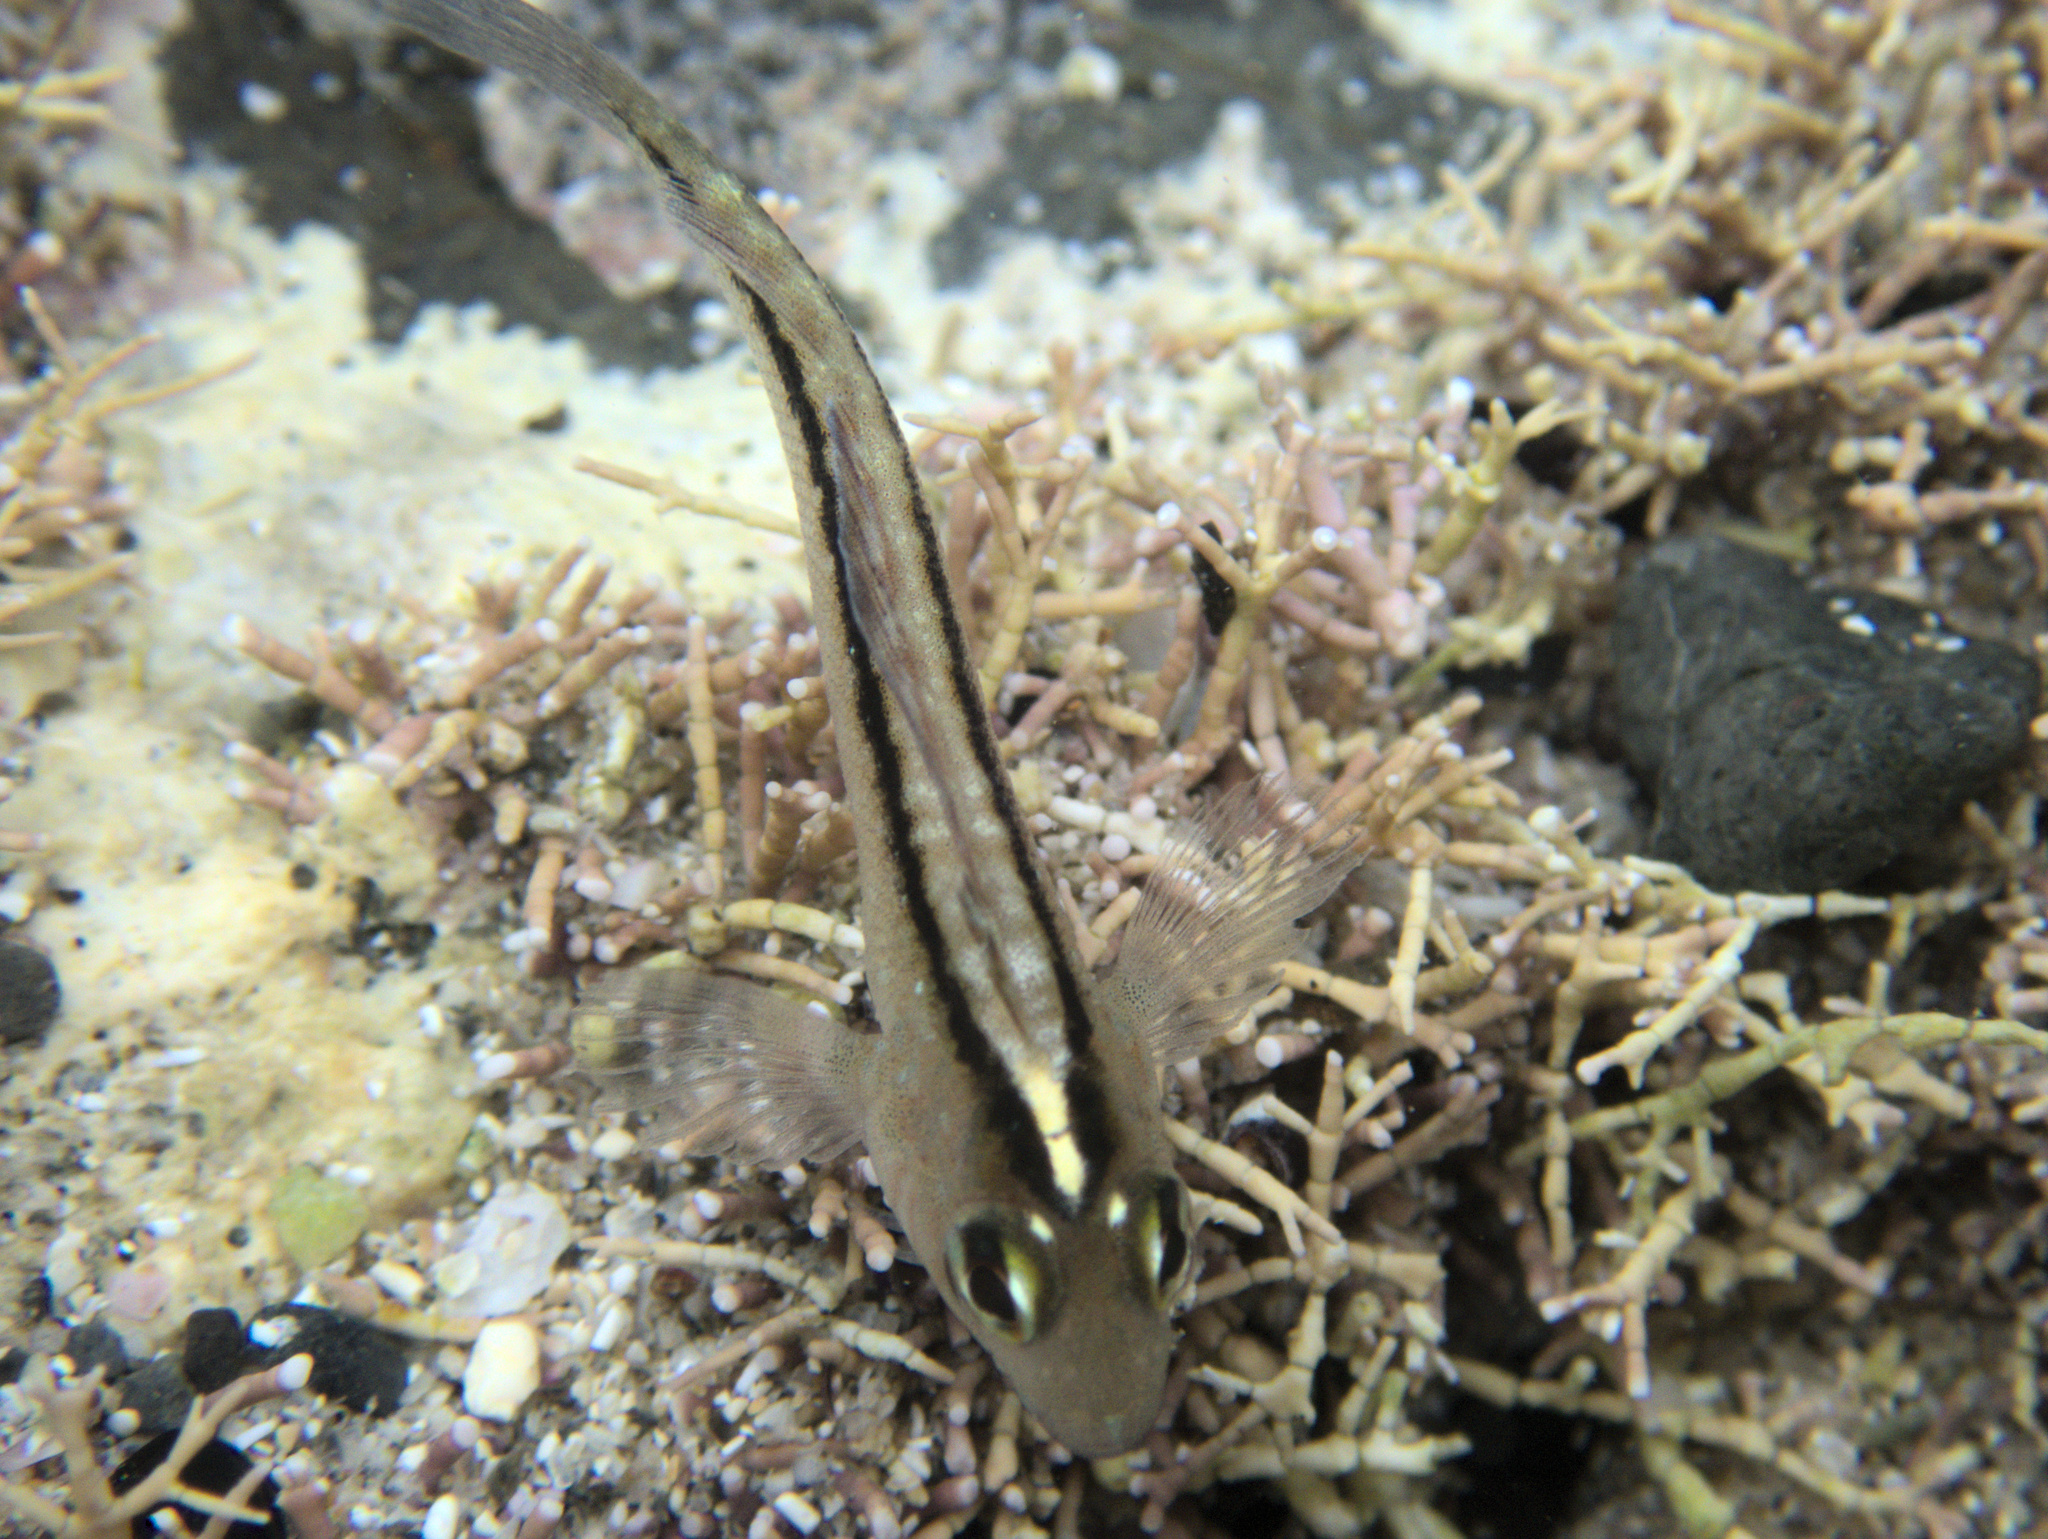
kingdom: Animalia
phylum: Chordata
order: Perciformes
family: Tripterygiidae
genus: Forsterygion
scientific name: Forsterygion lapillum
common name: Common triplefin
